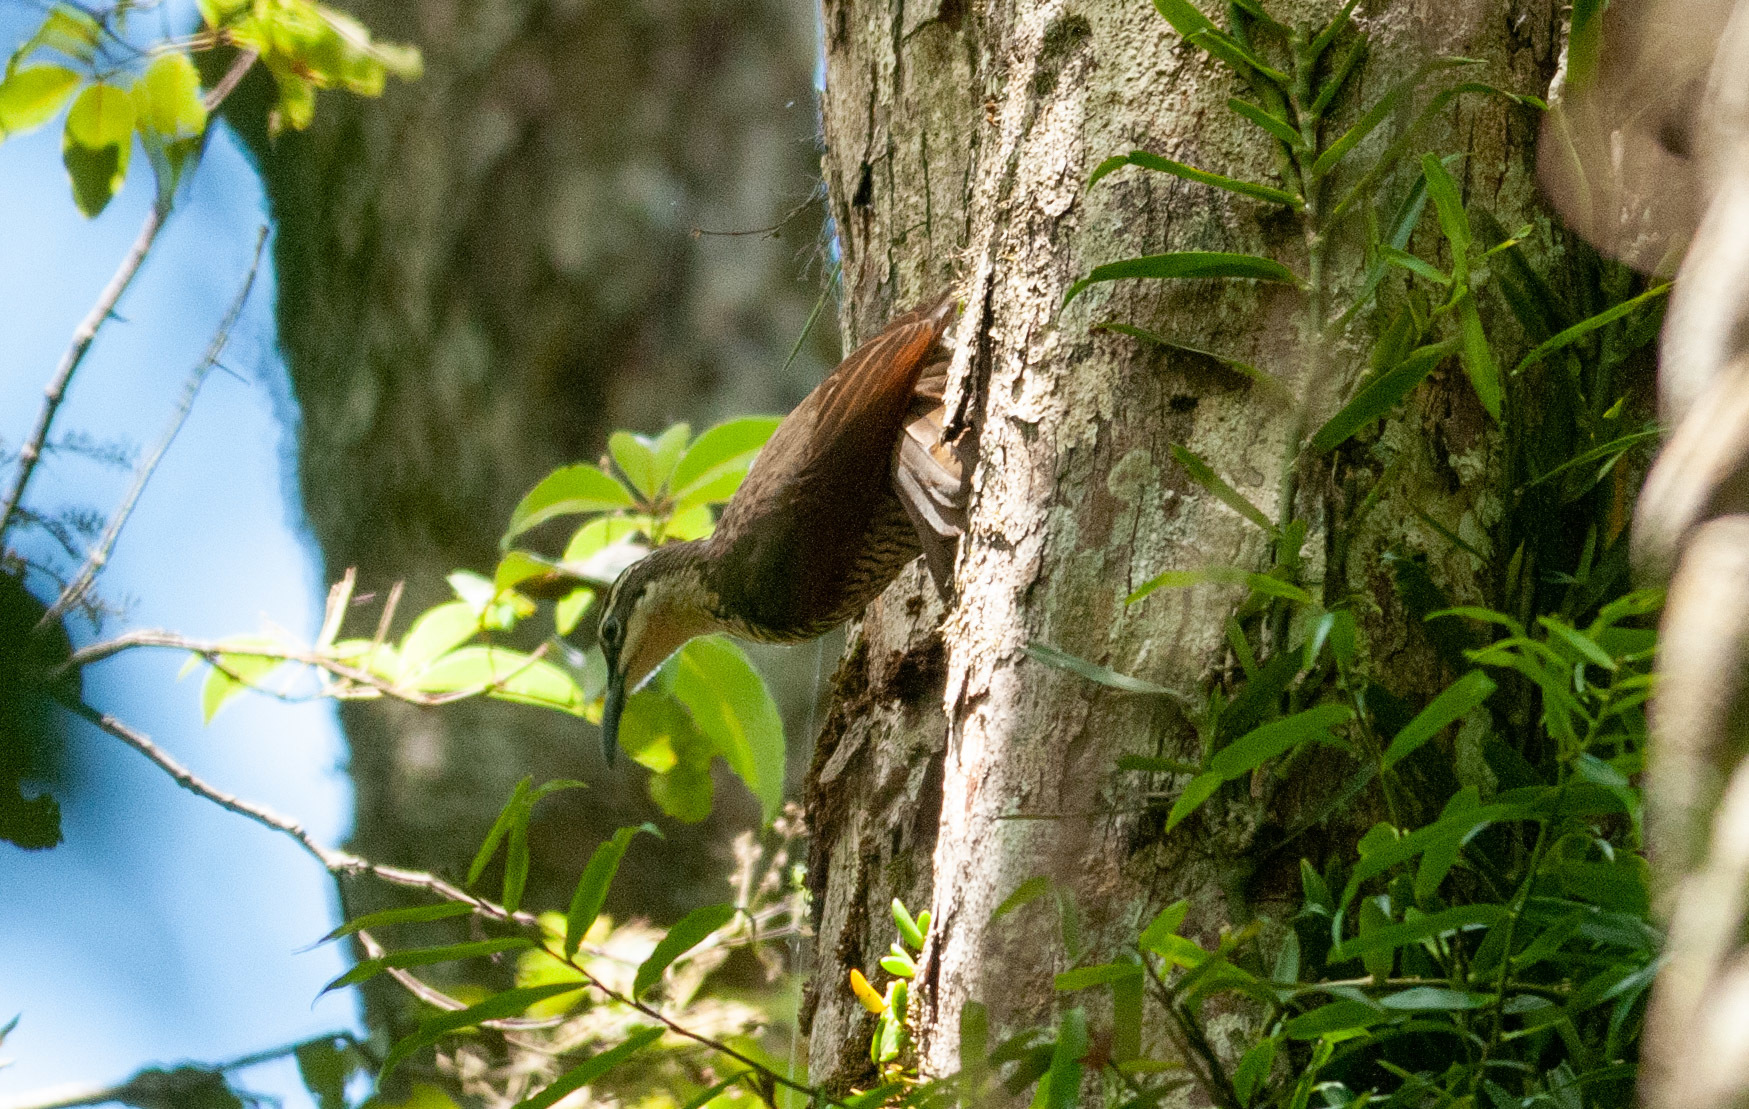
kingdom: Animalia
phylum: Chordata
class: Aves
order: Passeriformes
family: Paradisaeidae
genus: Ptiloris
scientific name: Ptiloris paradiseus
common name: Paradise riflebird
